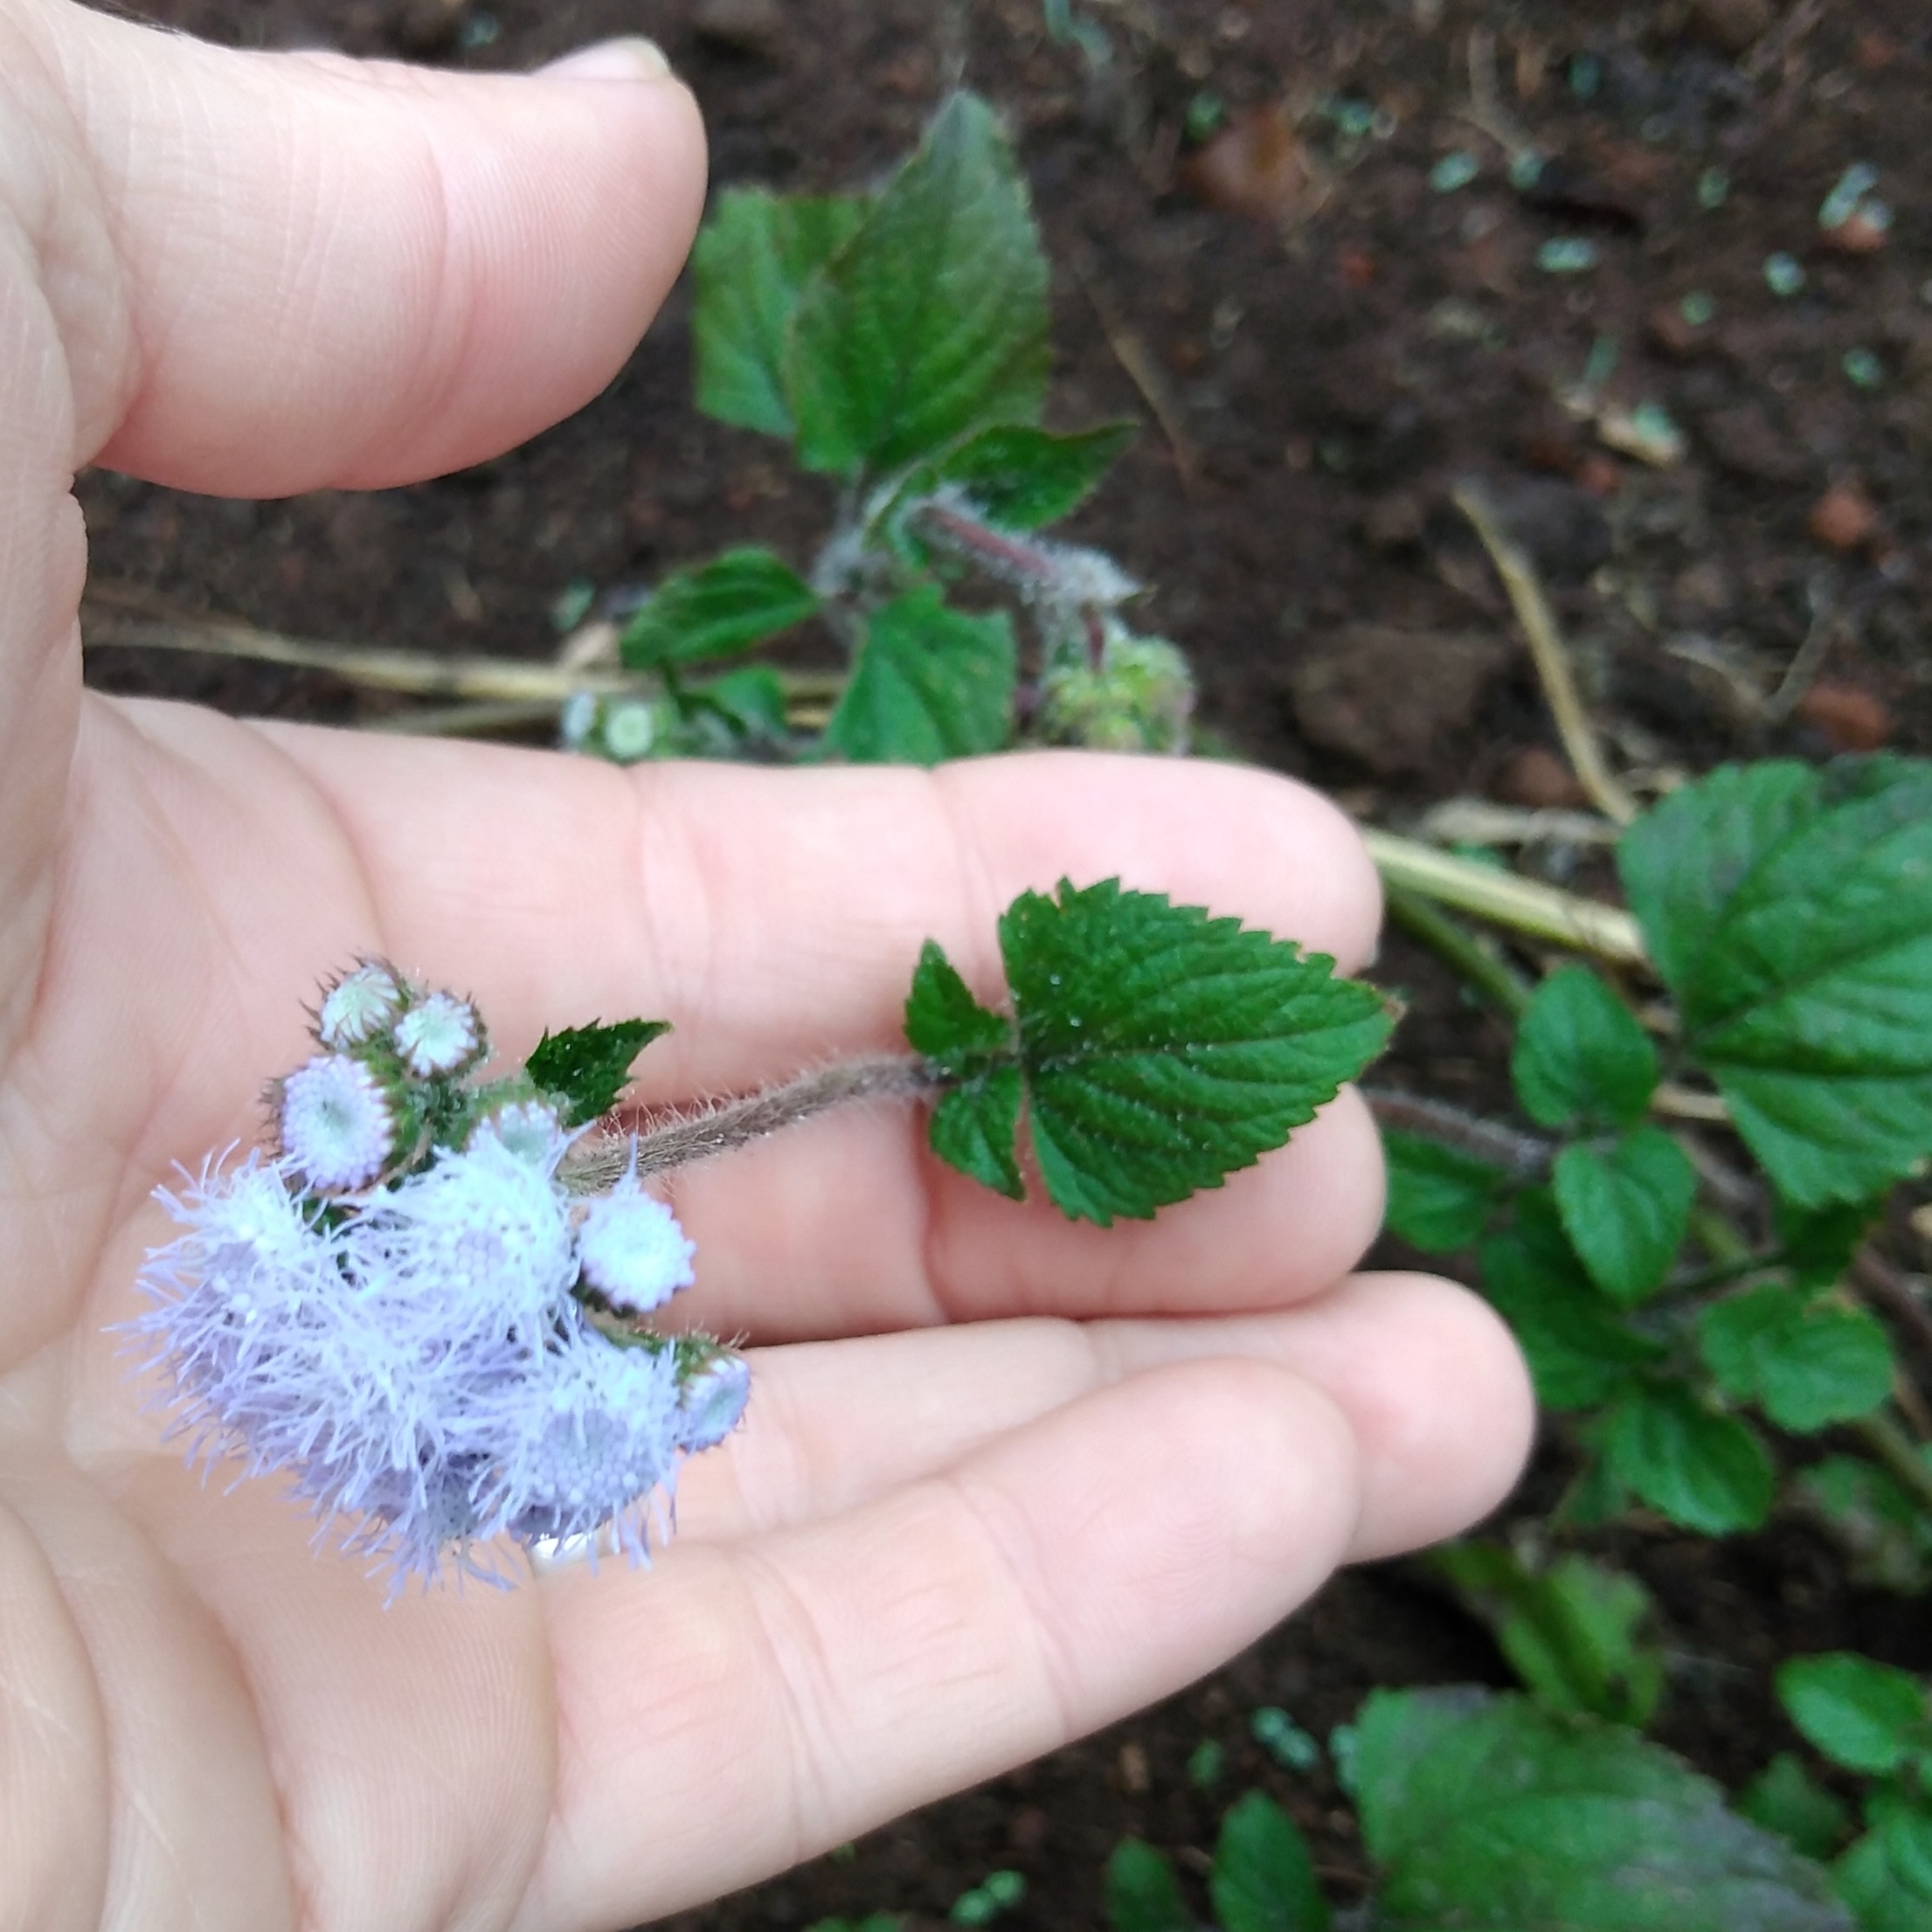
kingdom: Plantae
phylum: Tracheophyta
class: Magnoliopsida
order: Asterales
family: Asteraceae
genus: Ageratum
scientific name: Ageratum houstonianum
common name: Bluemink
